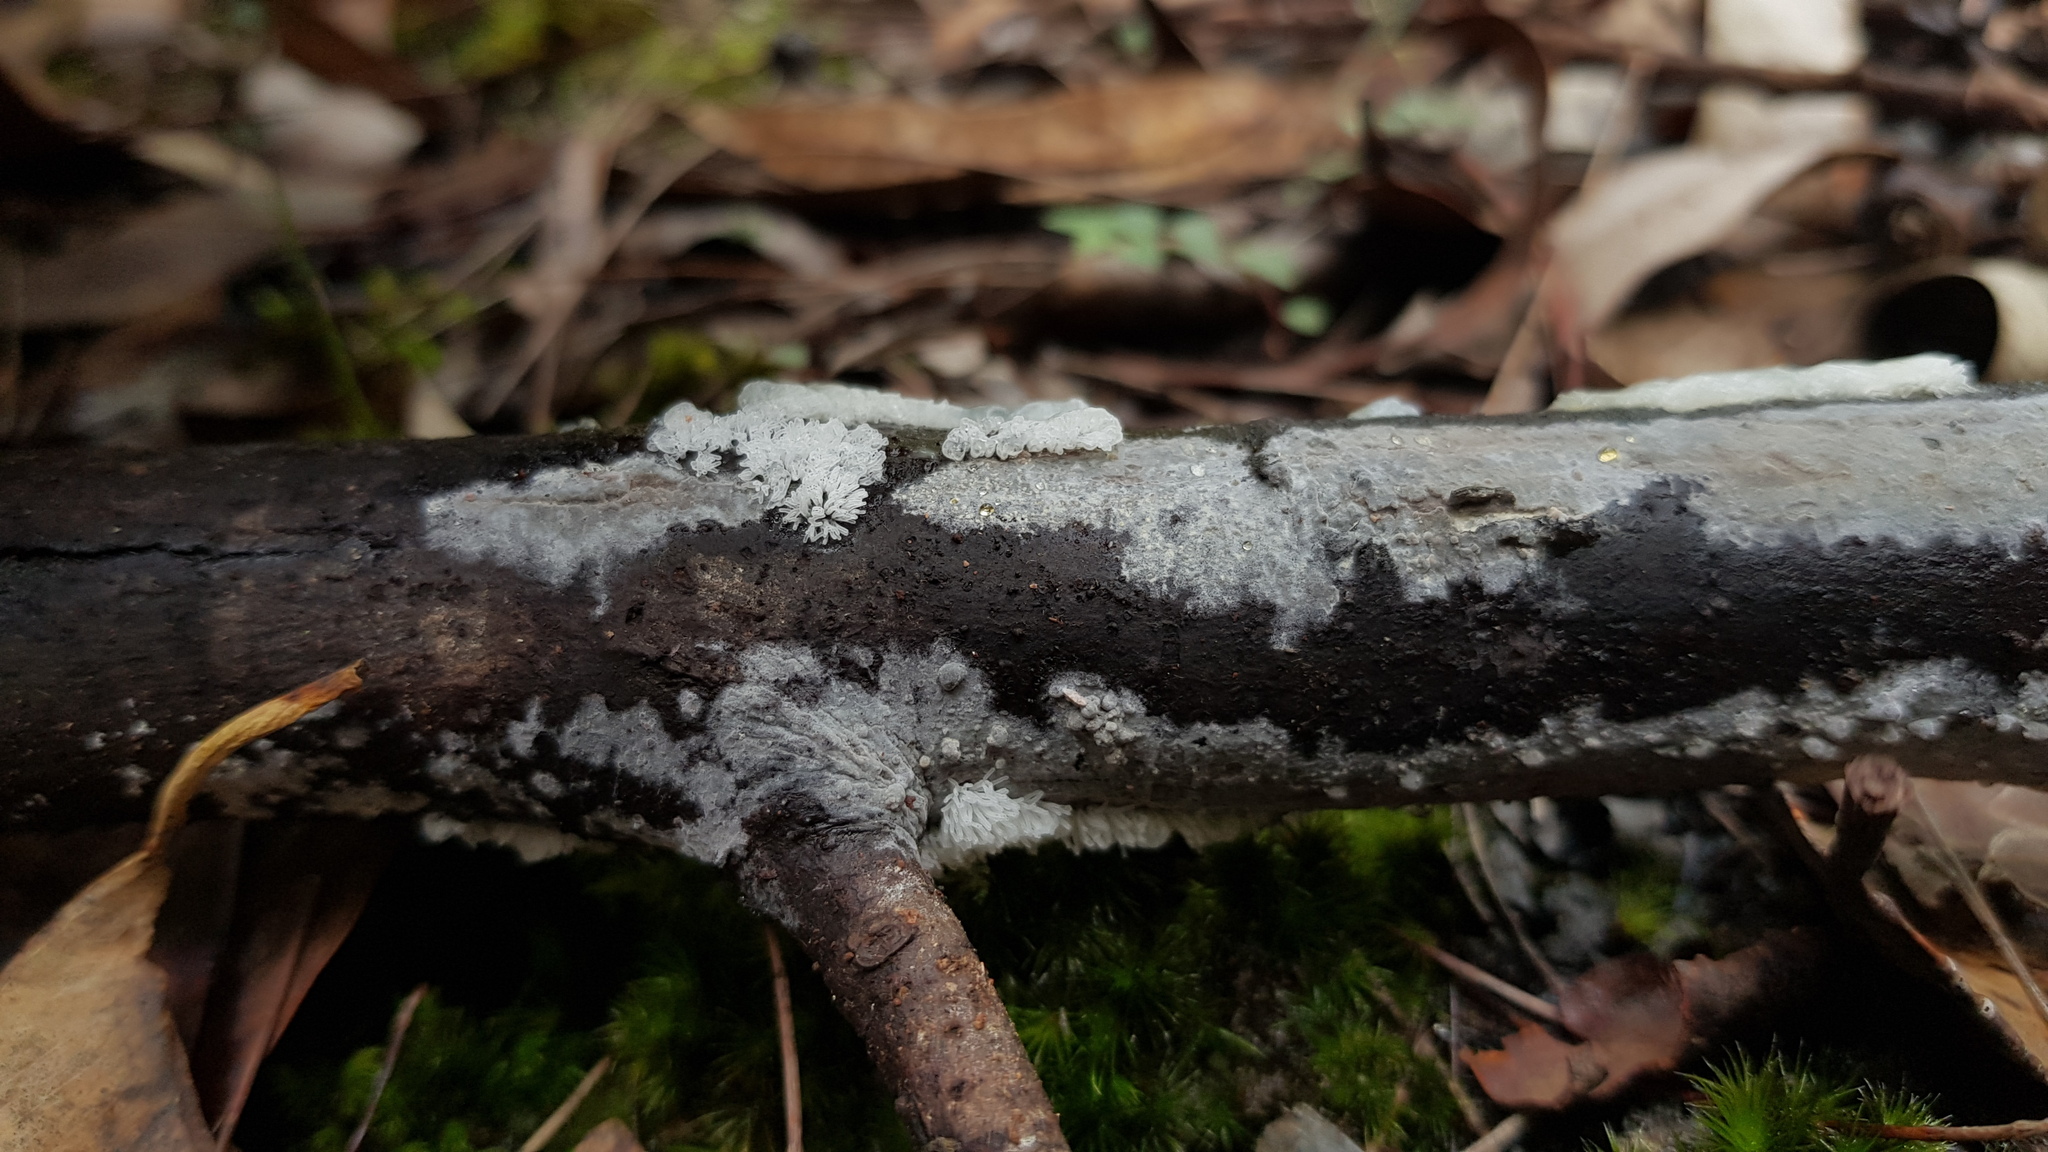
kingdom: Protozoa
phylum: Mycetozoa
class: Protosteliomycetes
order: Ceratiomyxales
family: Ceratiomyxaceae
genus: Ceratiomyxa
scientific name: Ceratiomyxa fruticulosa
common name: Honeycomb coral slime mold
